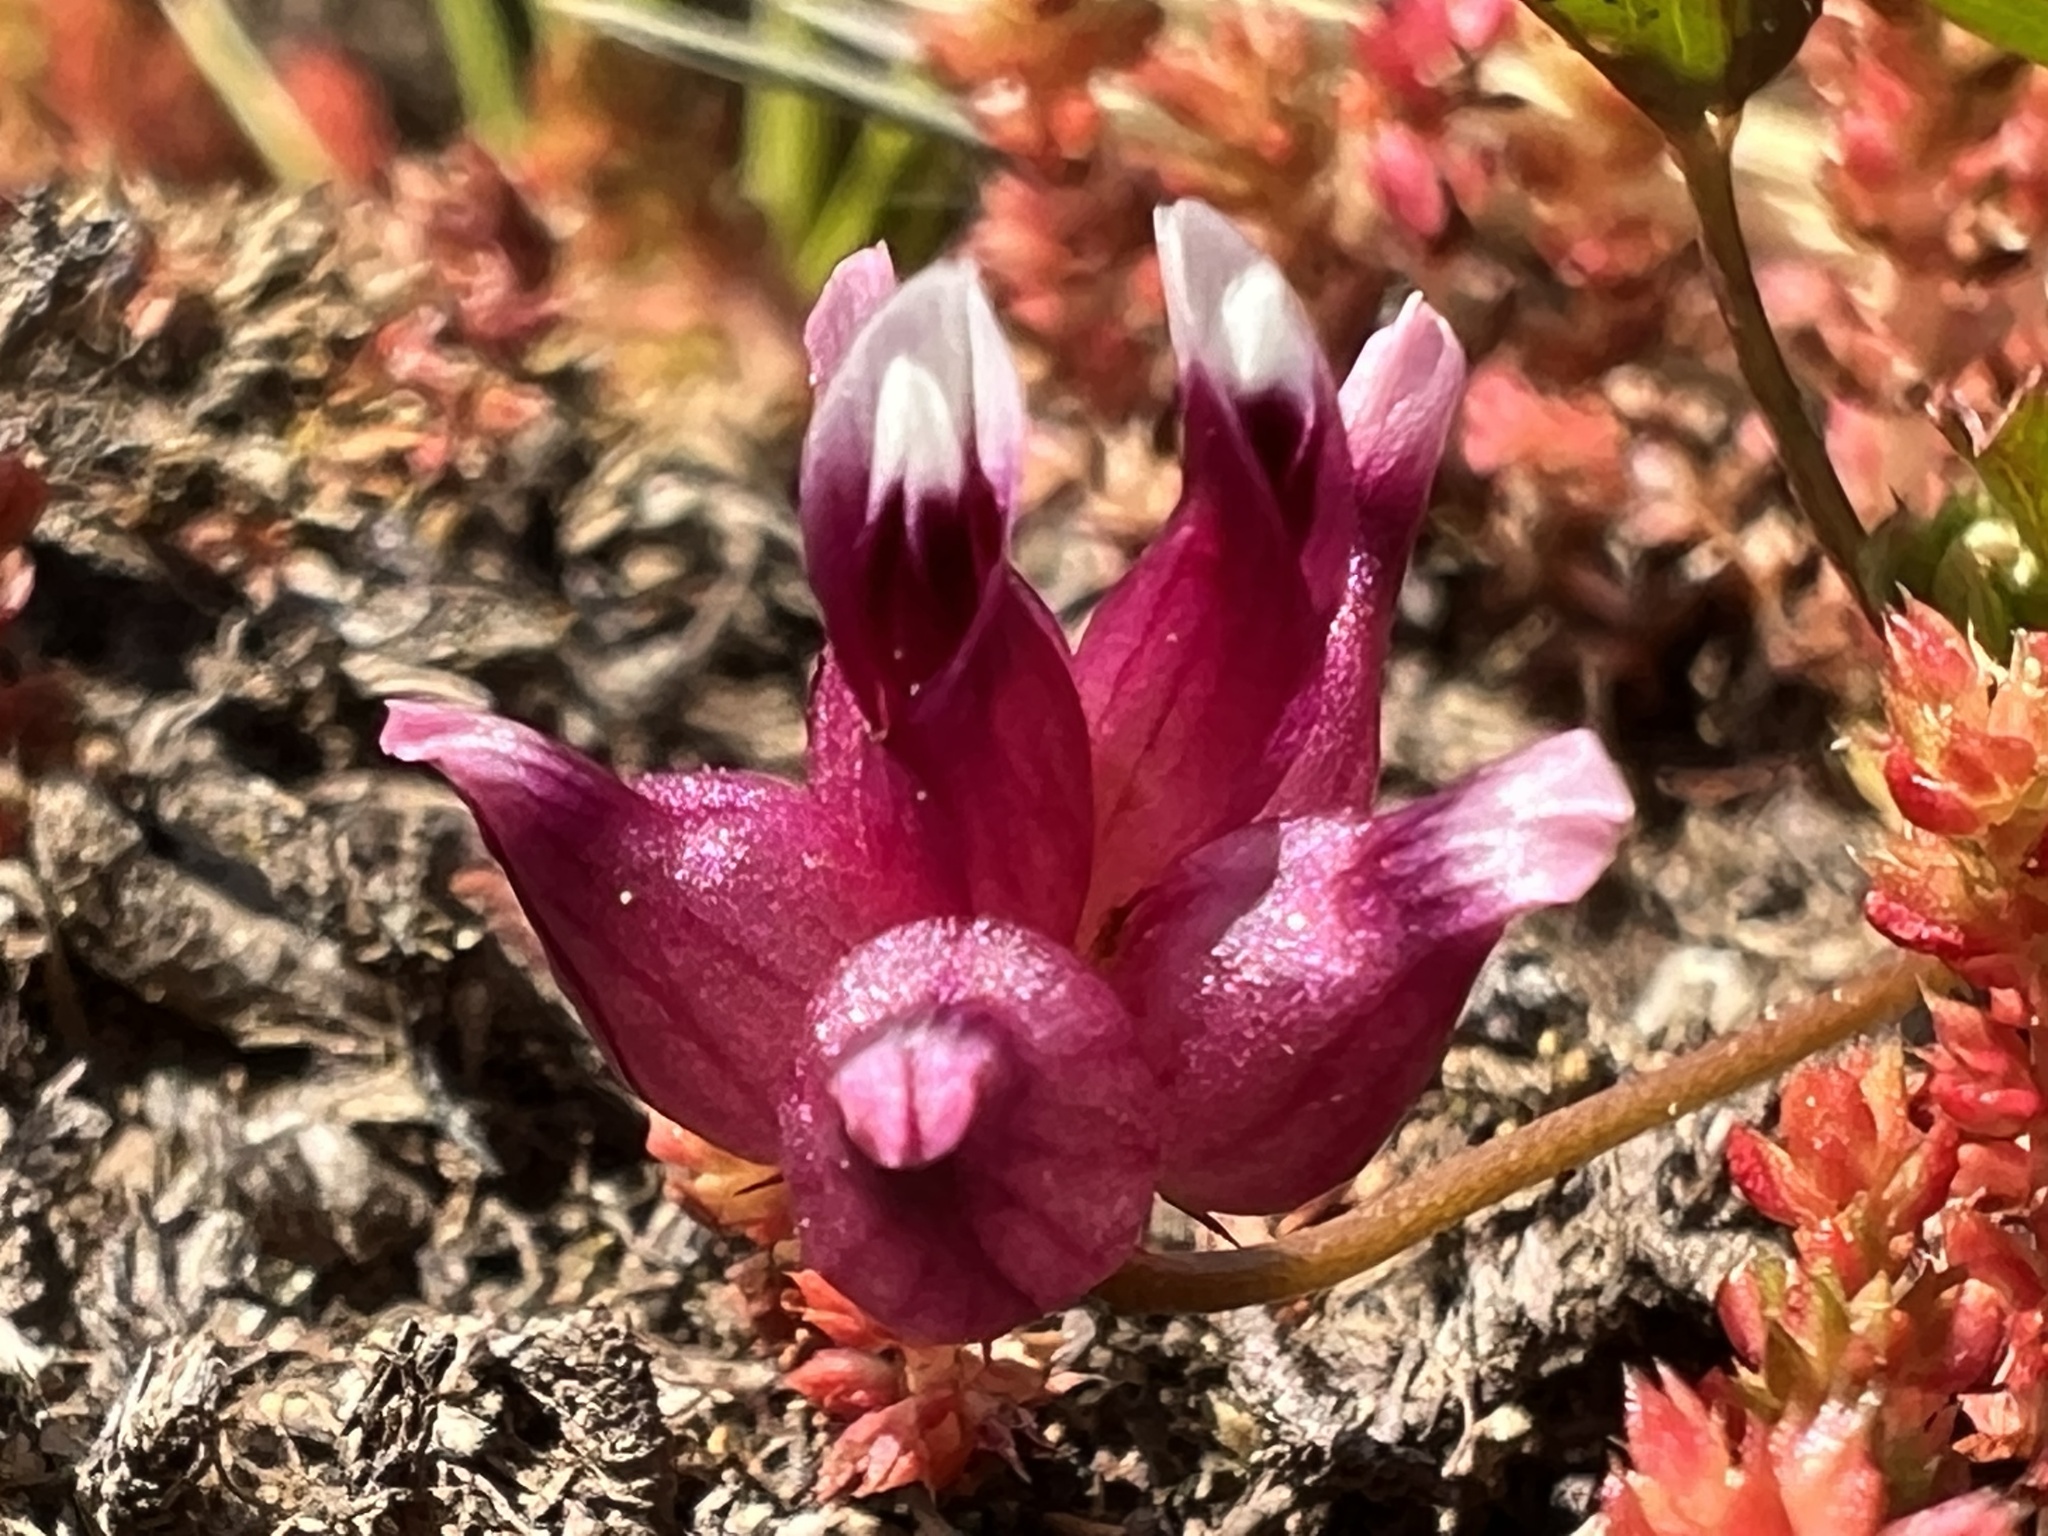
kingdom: Plantae
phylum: Tracheophyta
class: Magnoliopsida
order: Fabales
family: Fabaceae
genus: Trifolium
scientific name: Trifolium depauperatum
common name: Poverty clover
